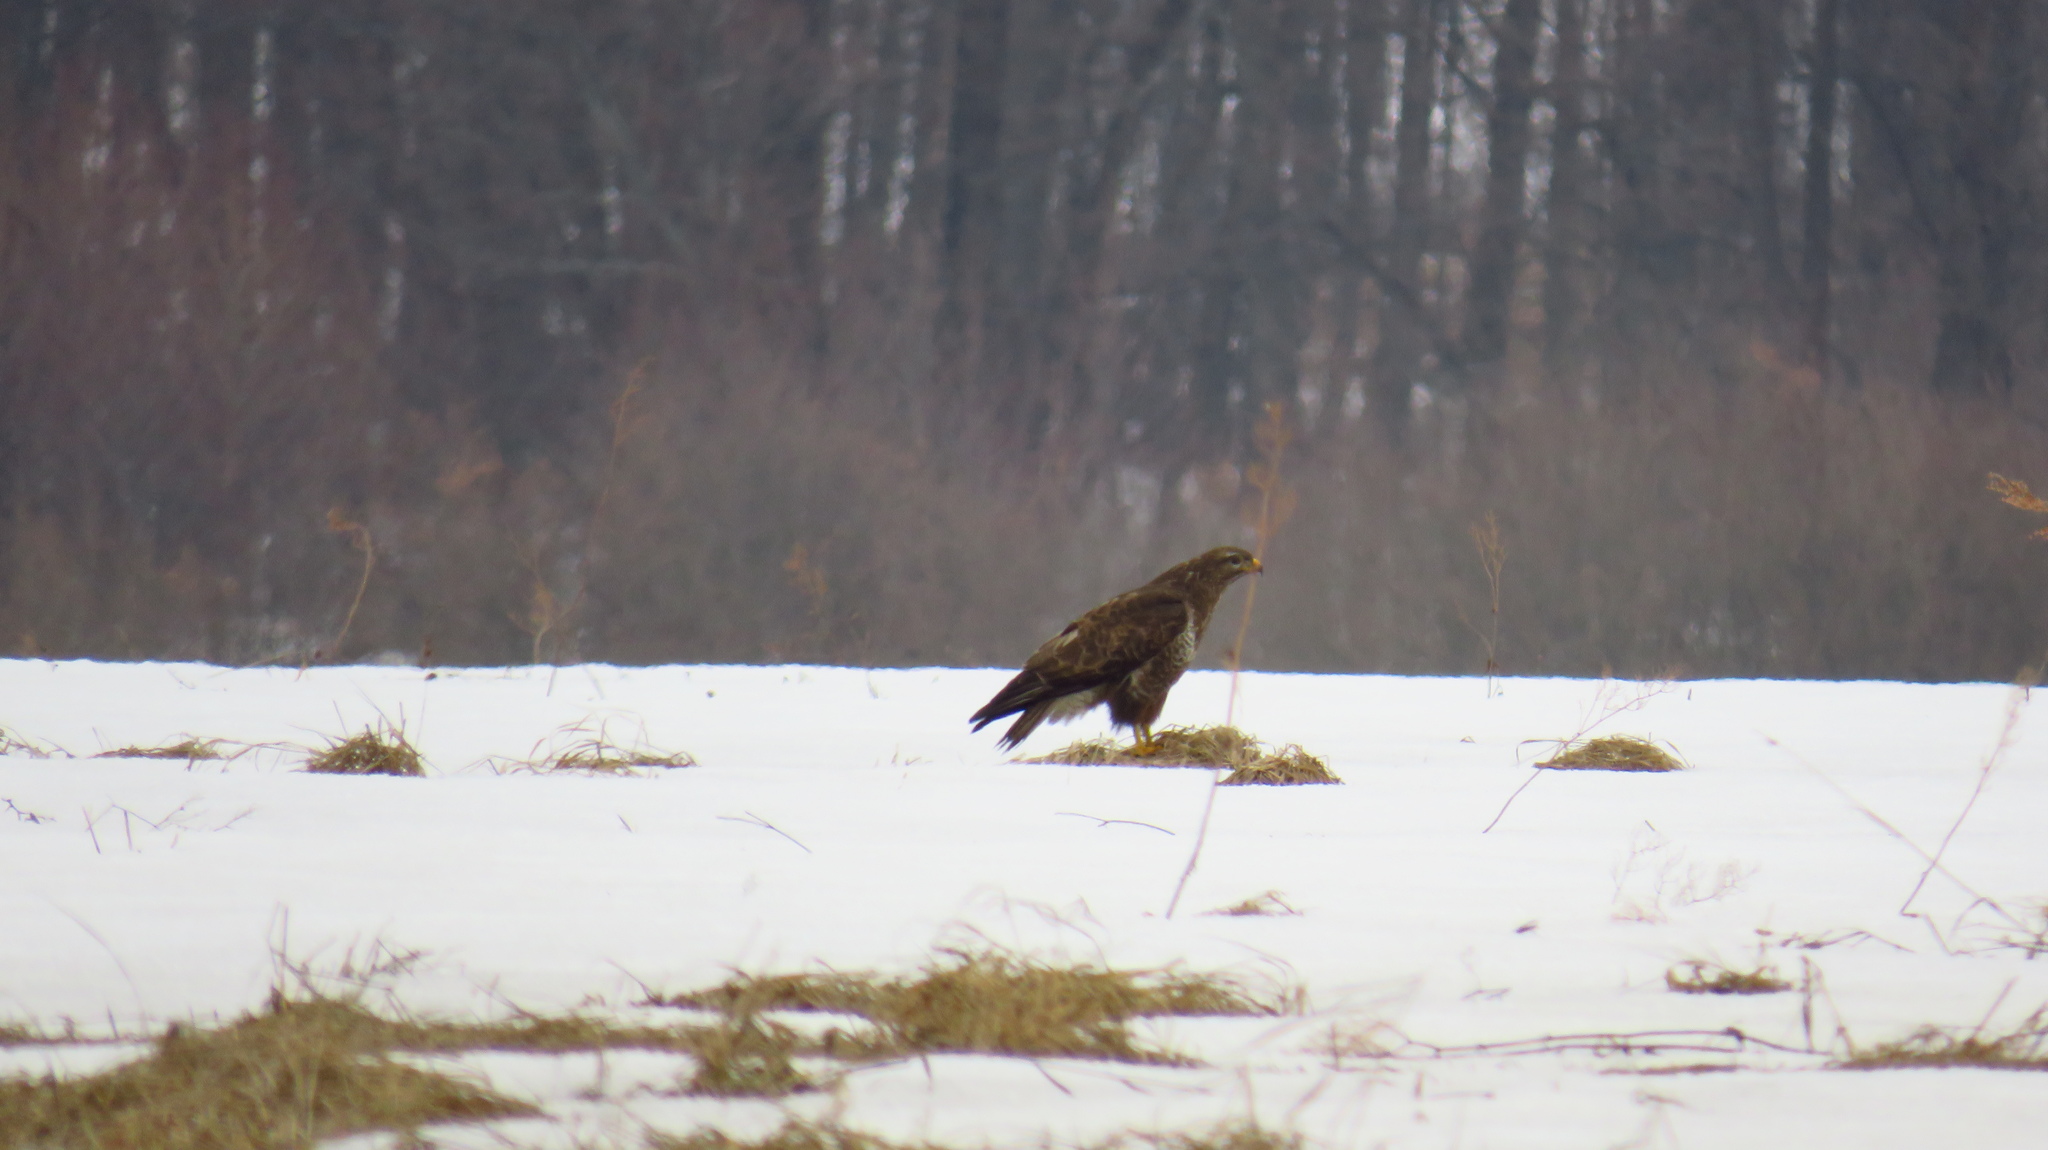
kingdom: Animalia
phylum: Chordata
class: Aves
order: Accipitriformes
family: Accipitridae
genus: Buteo
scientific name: Buteo buteo
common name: Common buzzard
